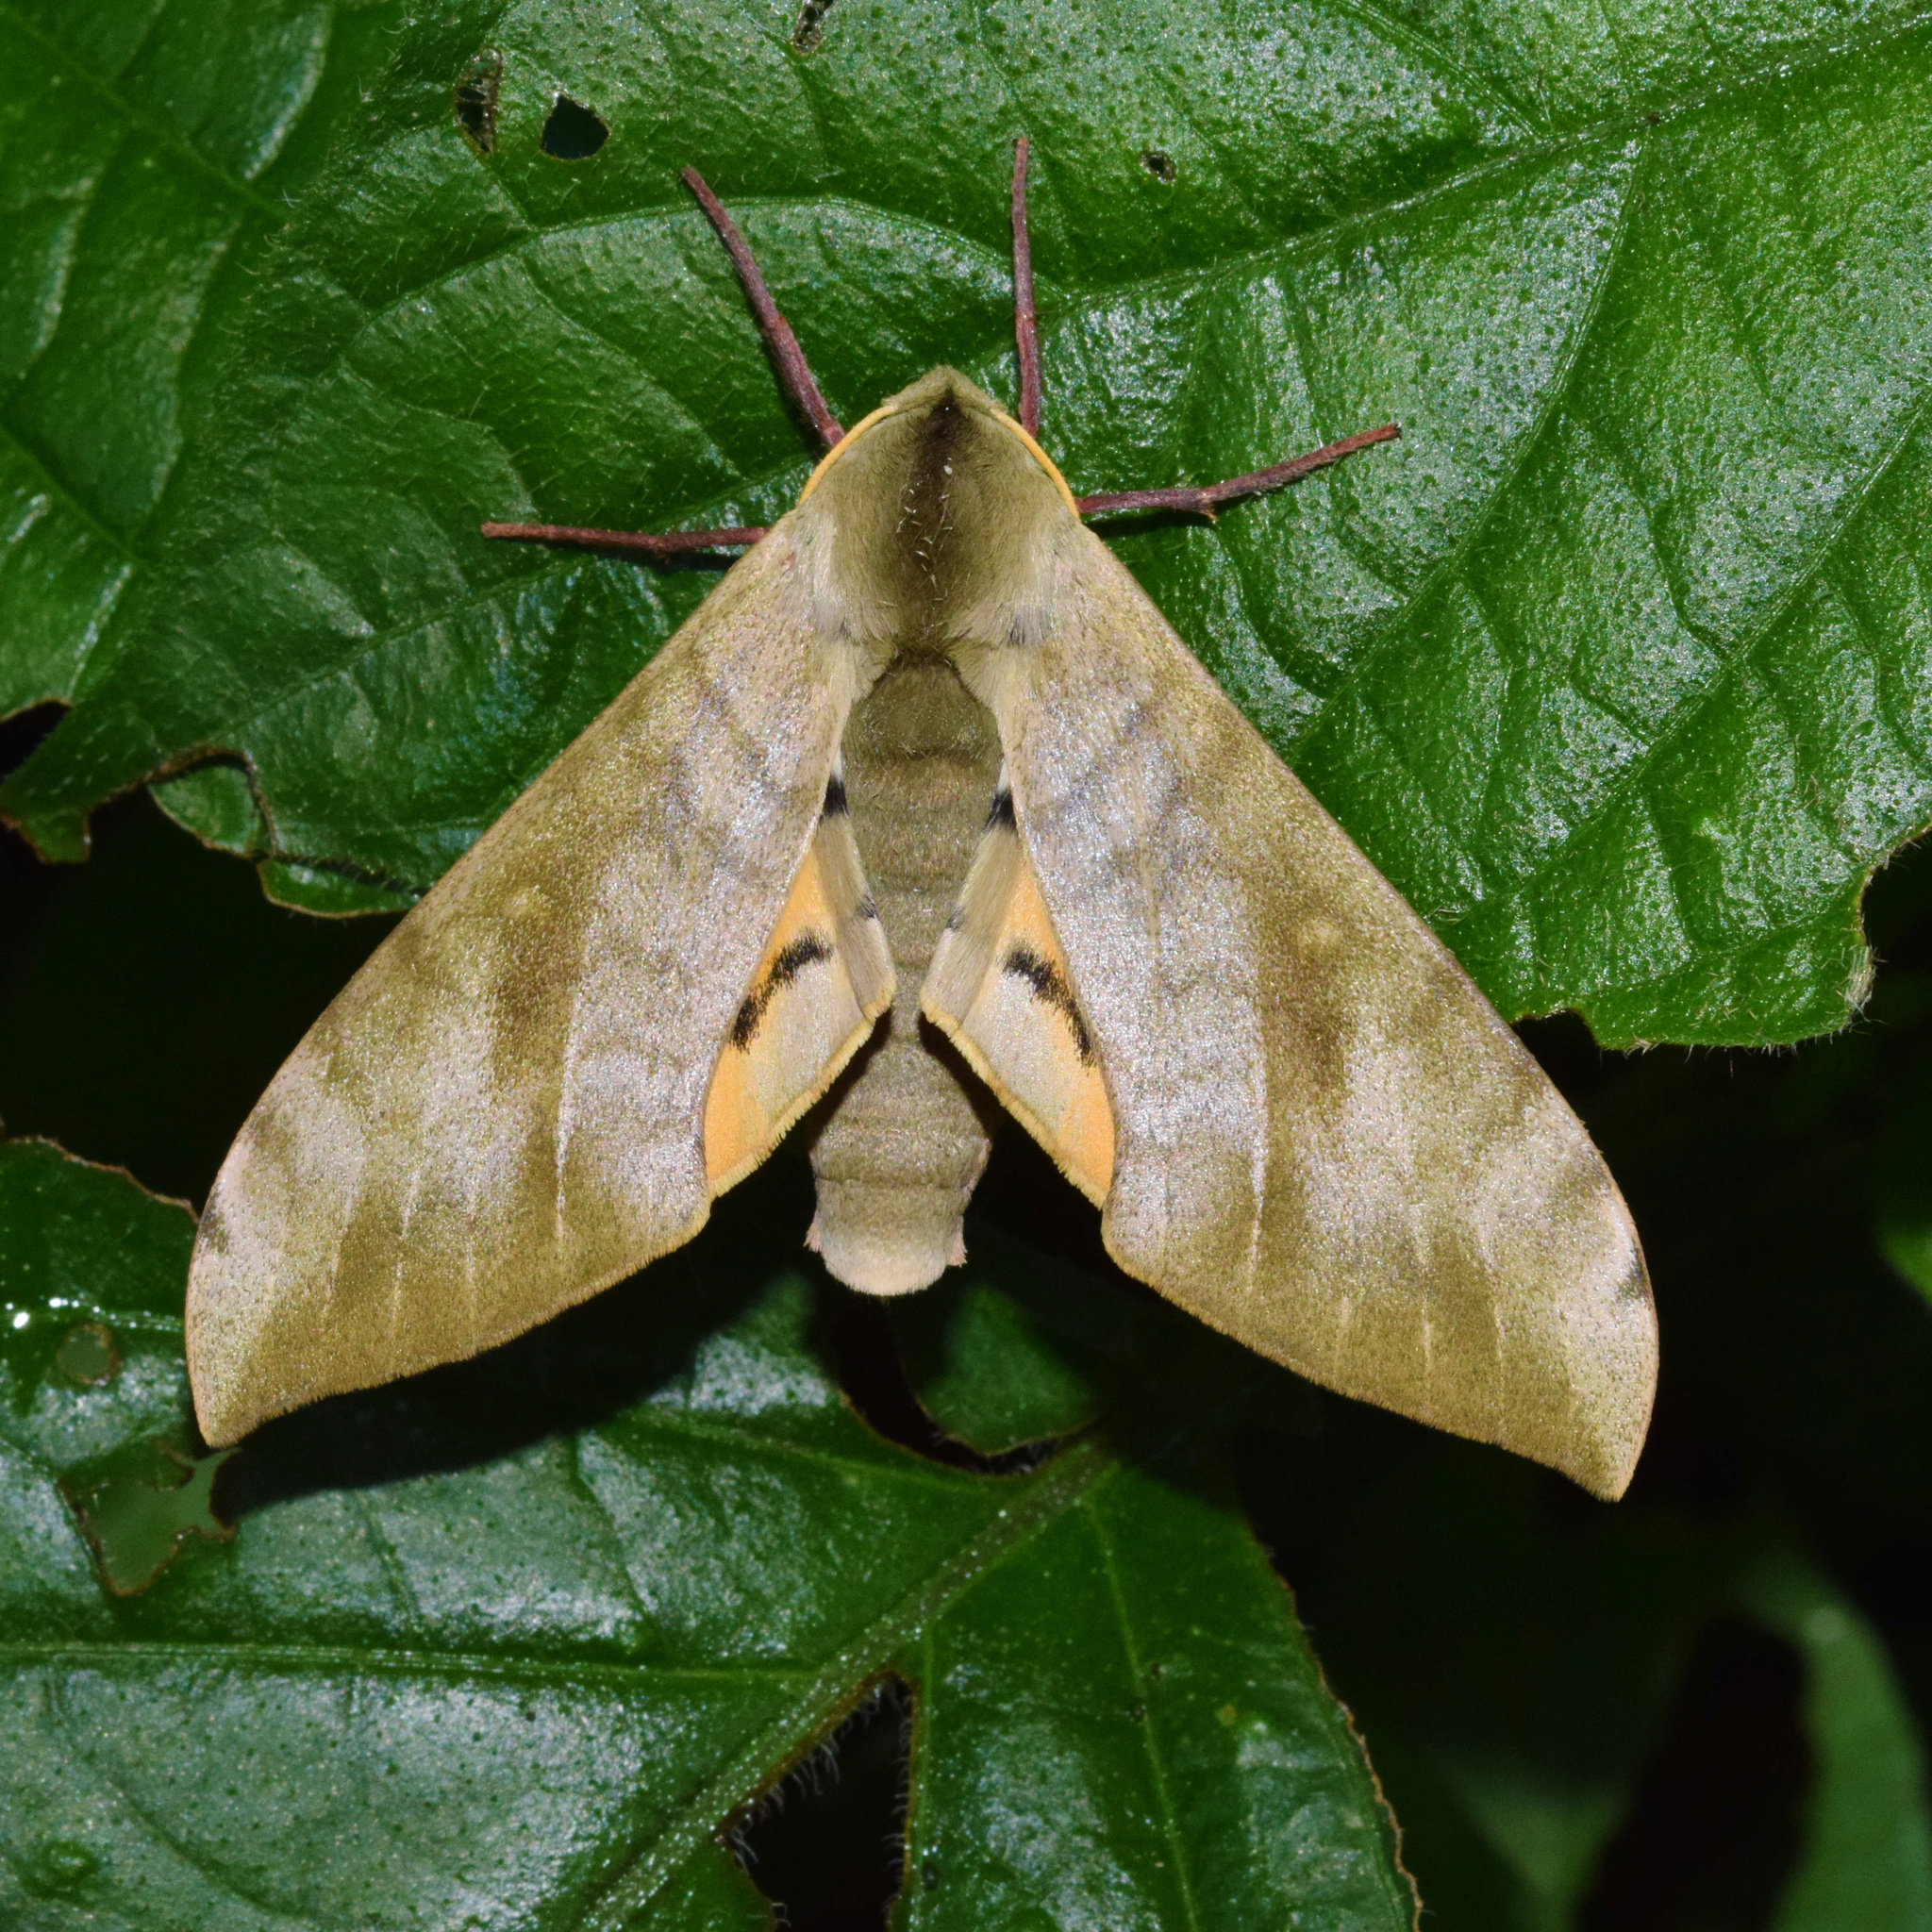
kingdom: Animalia
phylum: Arthropoda
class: Insecta
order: Lepidoptera
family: Sphingidae
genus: Pseudoclanis
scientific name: Pseudoclanis postica
